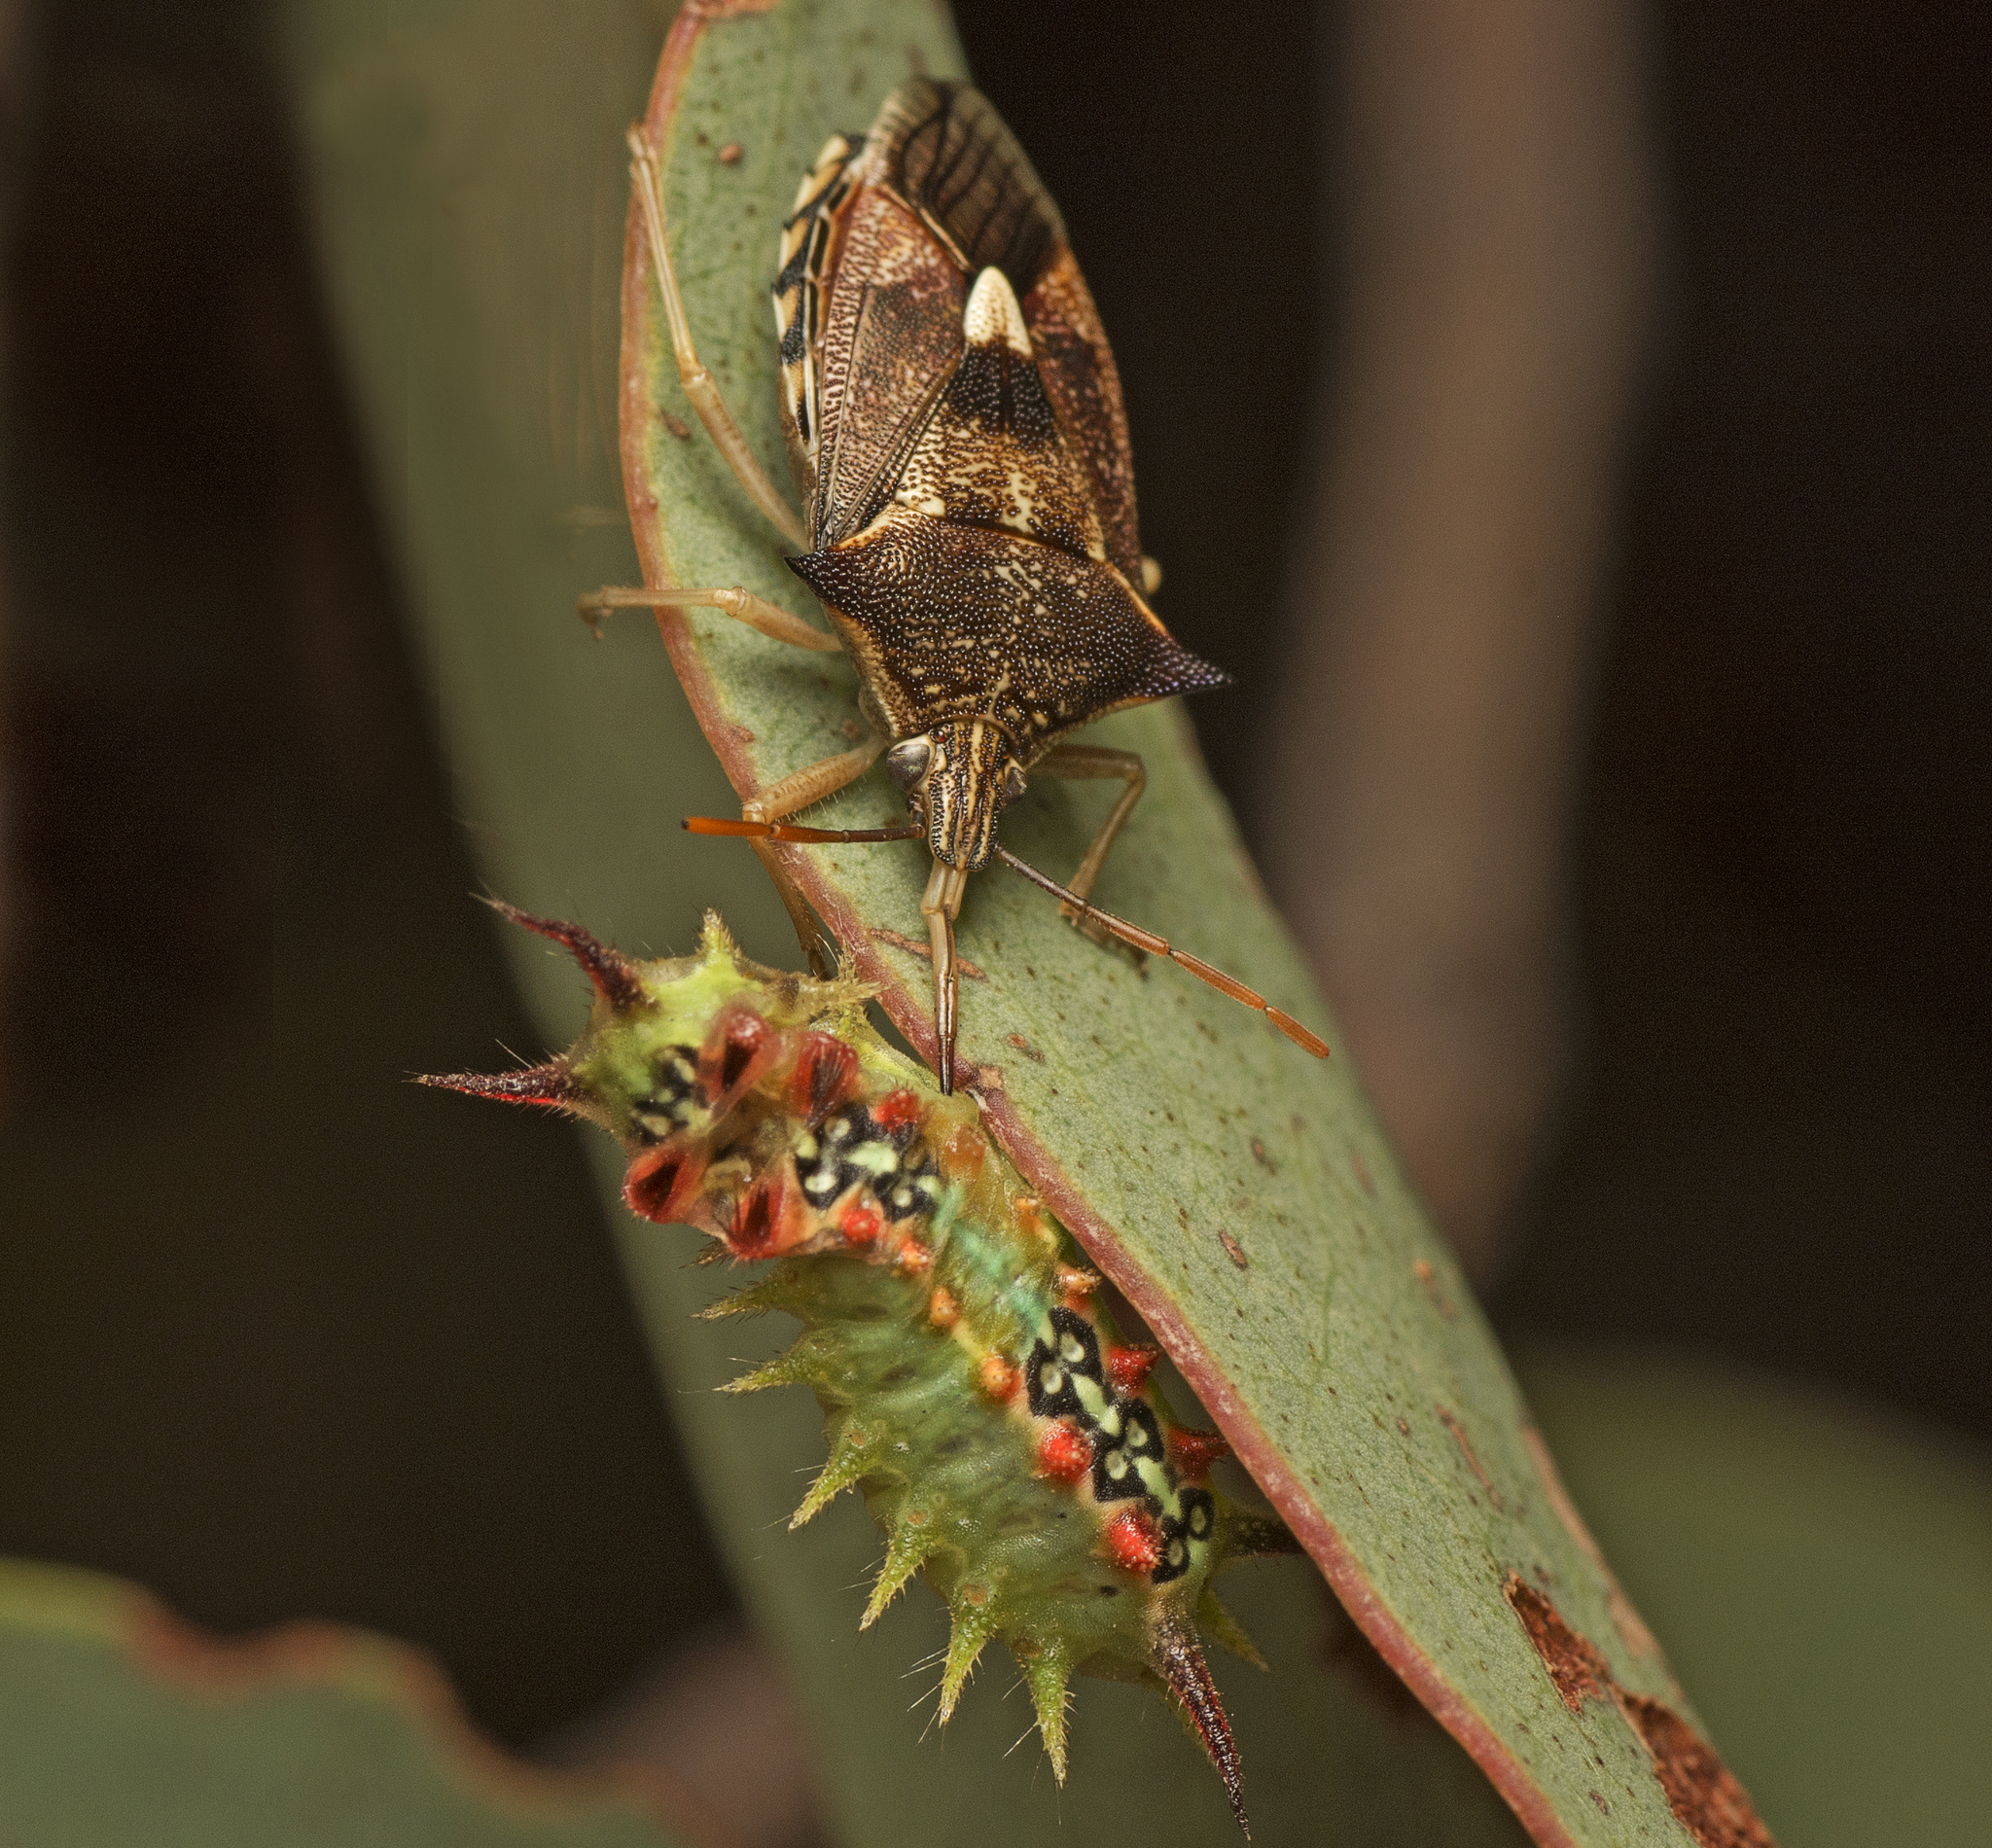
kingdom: Animalia
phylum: Arthropoda
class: Insecta
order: Lepidoptera
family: Limacodidae
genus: Doratifera
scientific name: Doratifera quadriguttata
